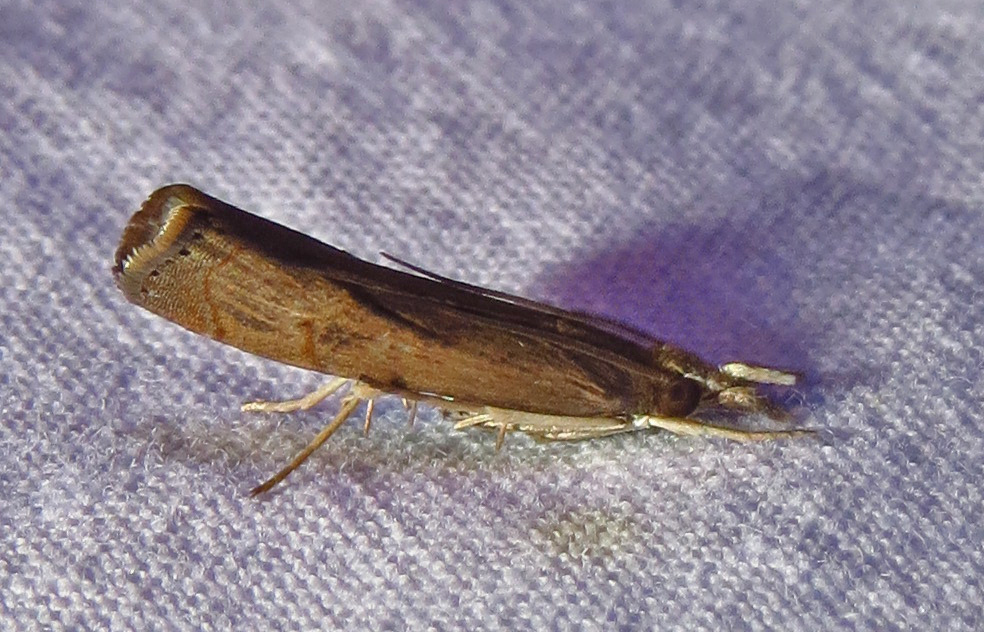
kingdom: Animalia
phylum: Arthropoda
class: Insecta
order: Lepidoptera
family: Crambidae
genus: Parapediasia
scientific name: Parapediasia teterellus
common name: Bluegrass webworm moth
